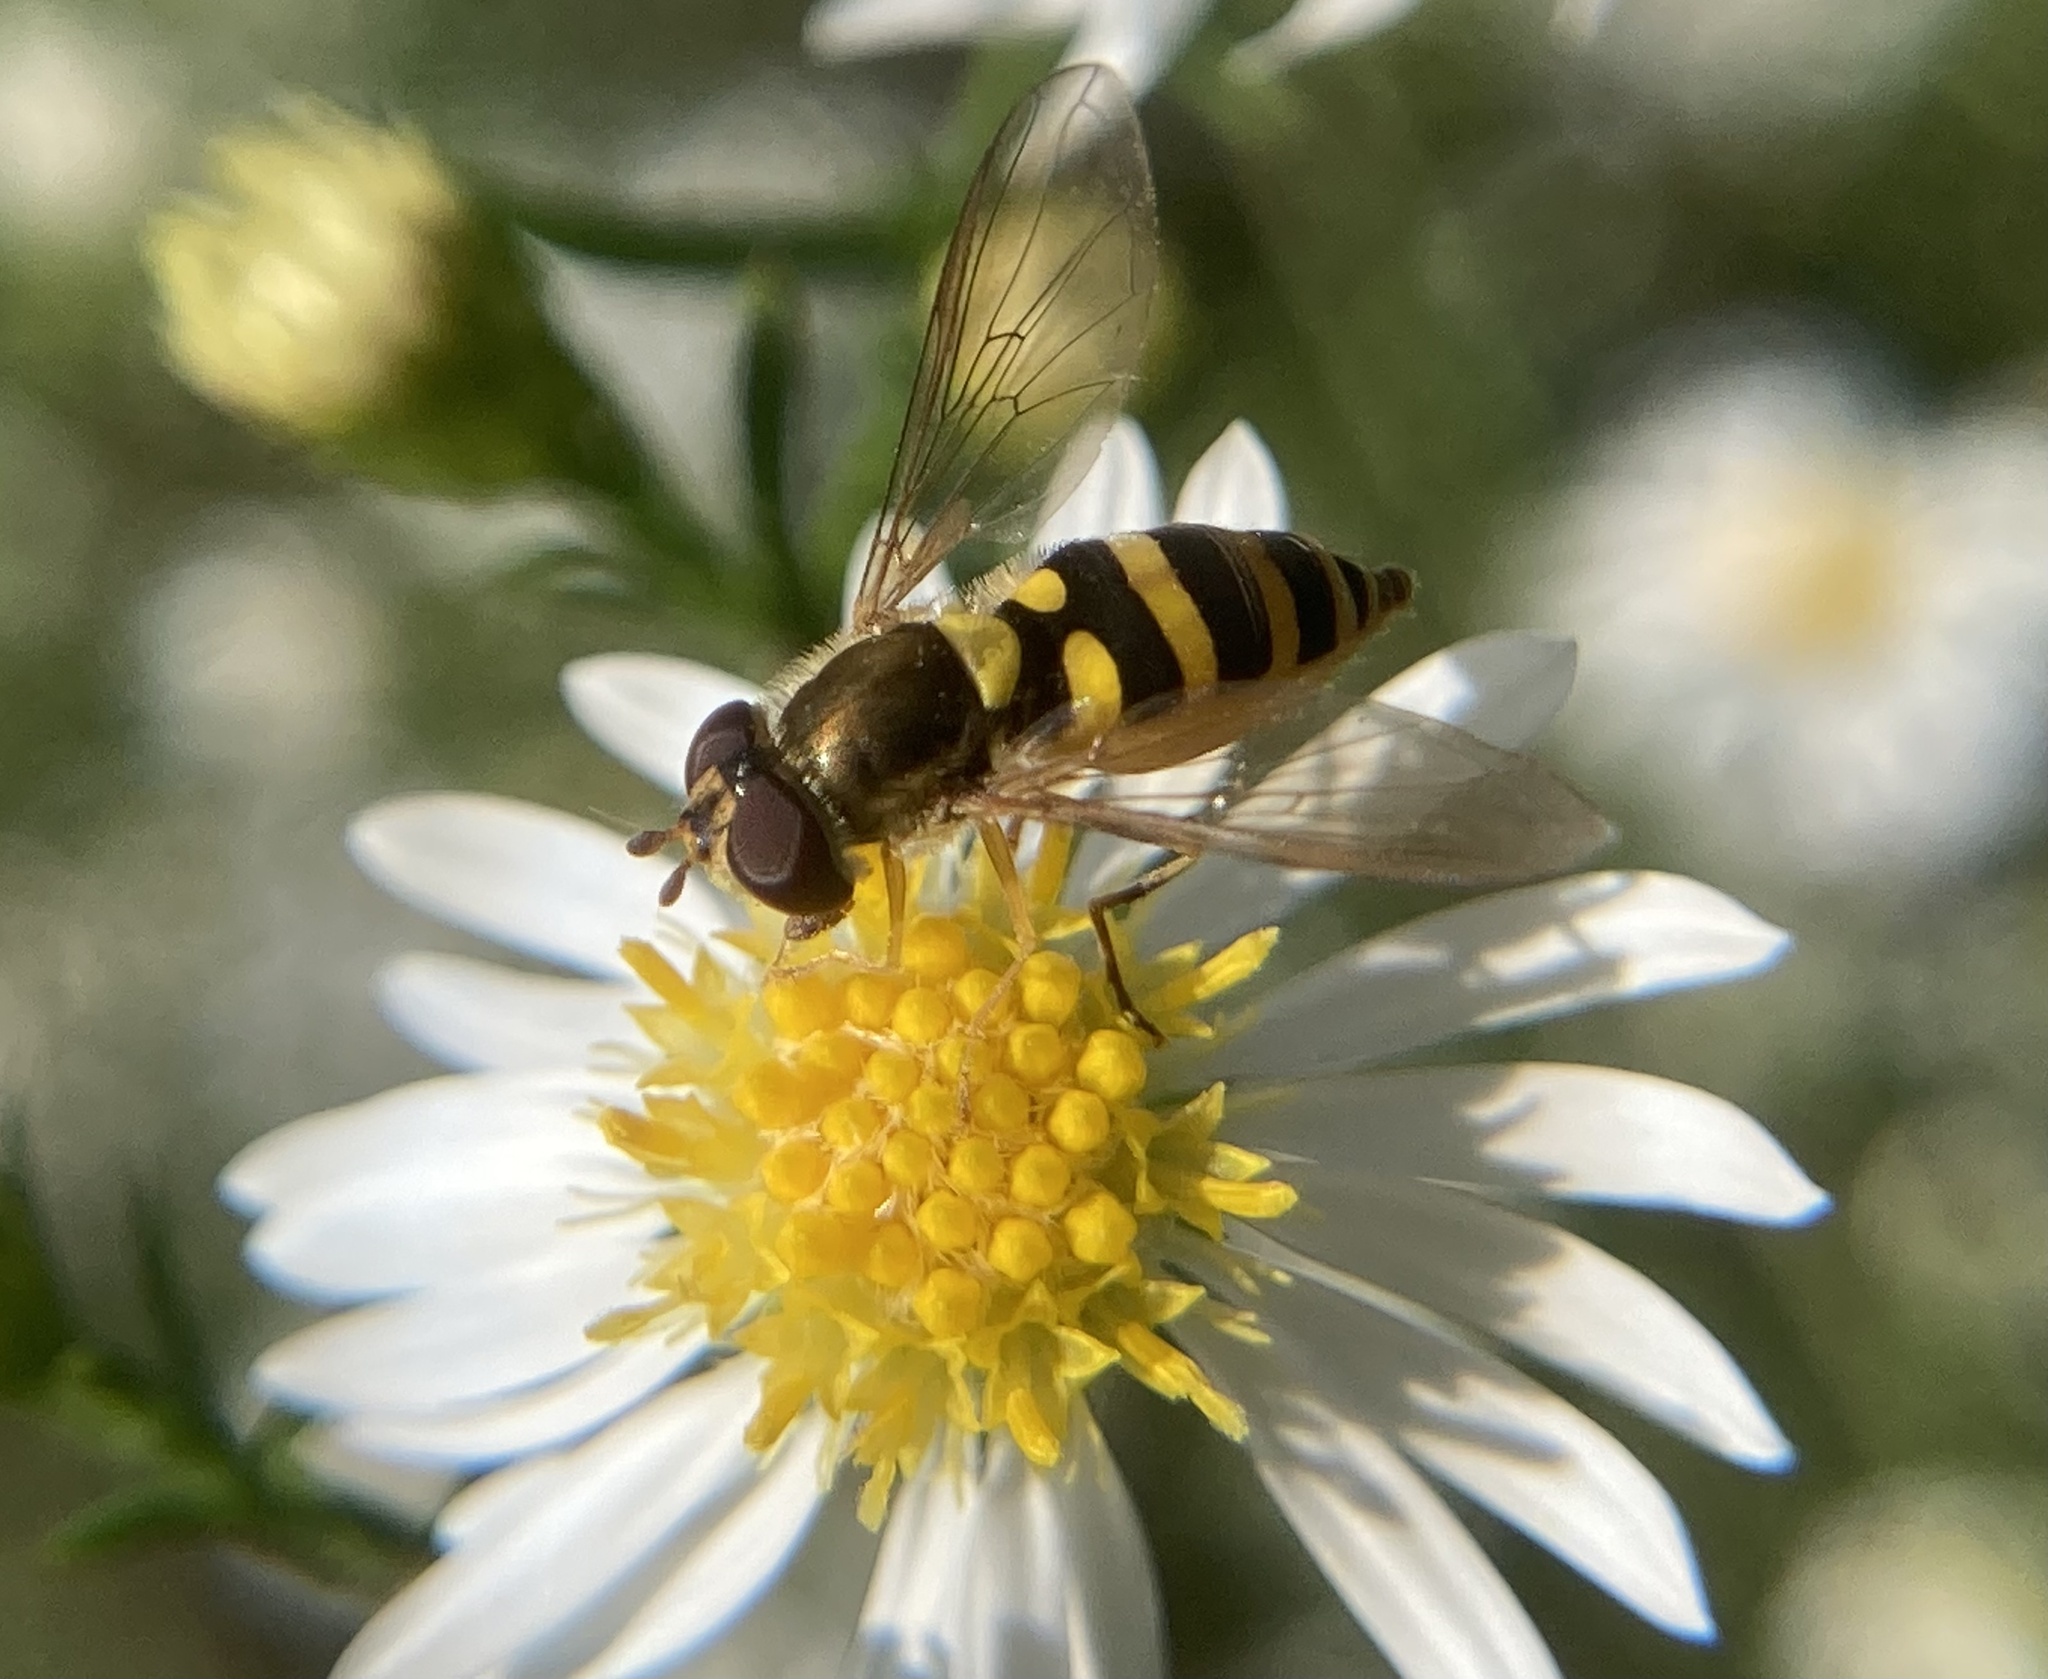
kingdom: Animalia
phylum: Arthropoda
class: Insecta
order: Diptera
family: Syrphidae
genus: Syrphus
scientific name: Syrphus rectus
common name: Yellow-legged flower fly
